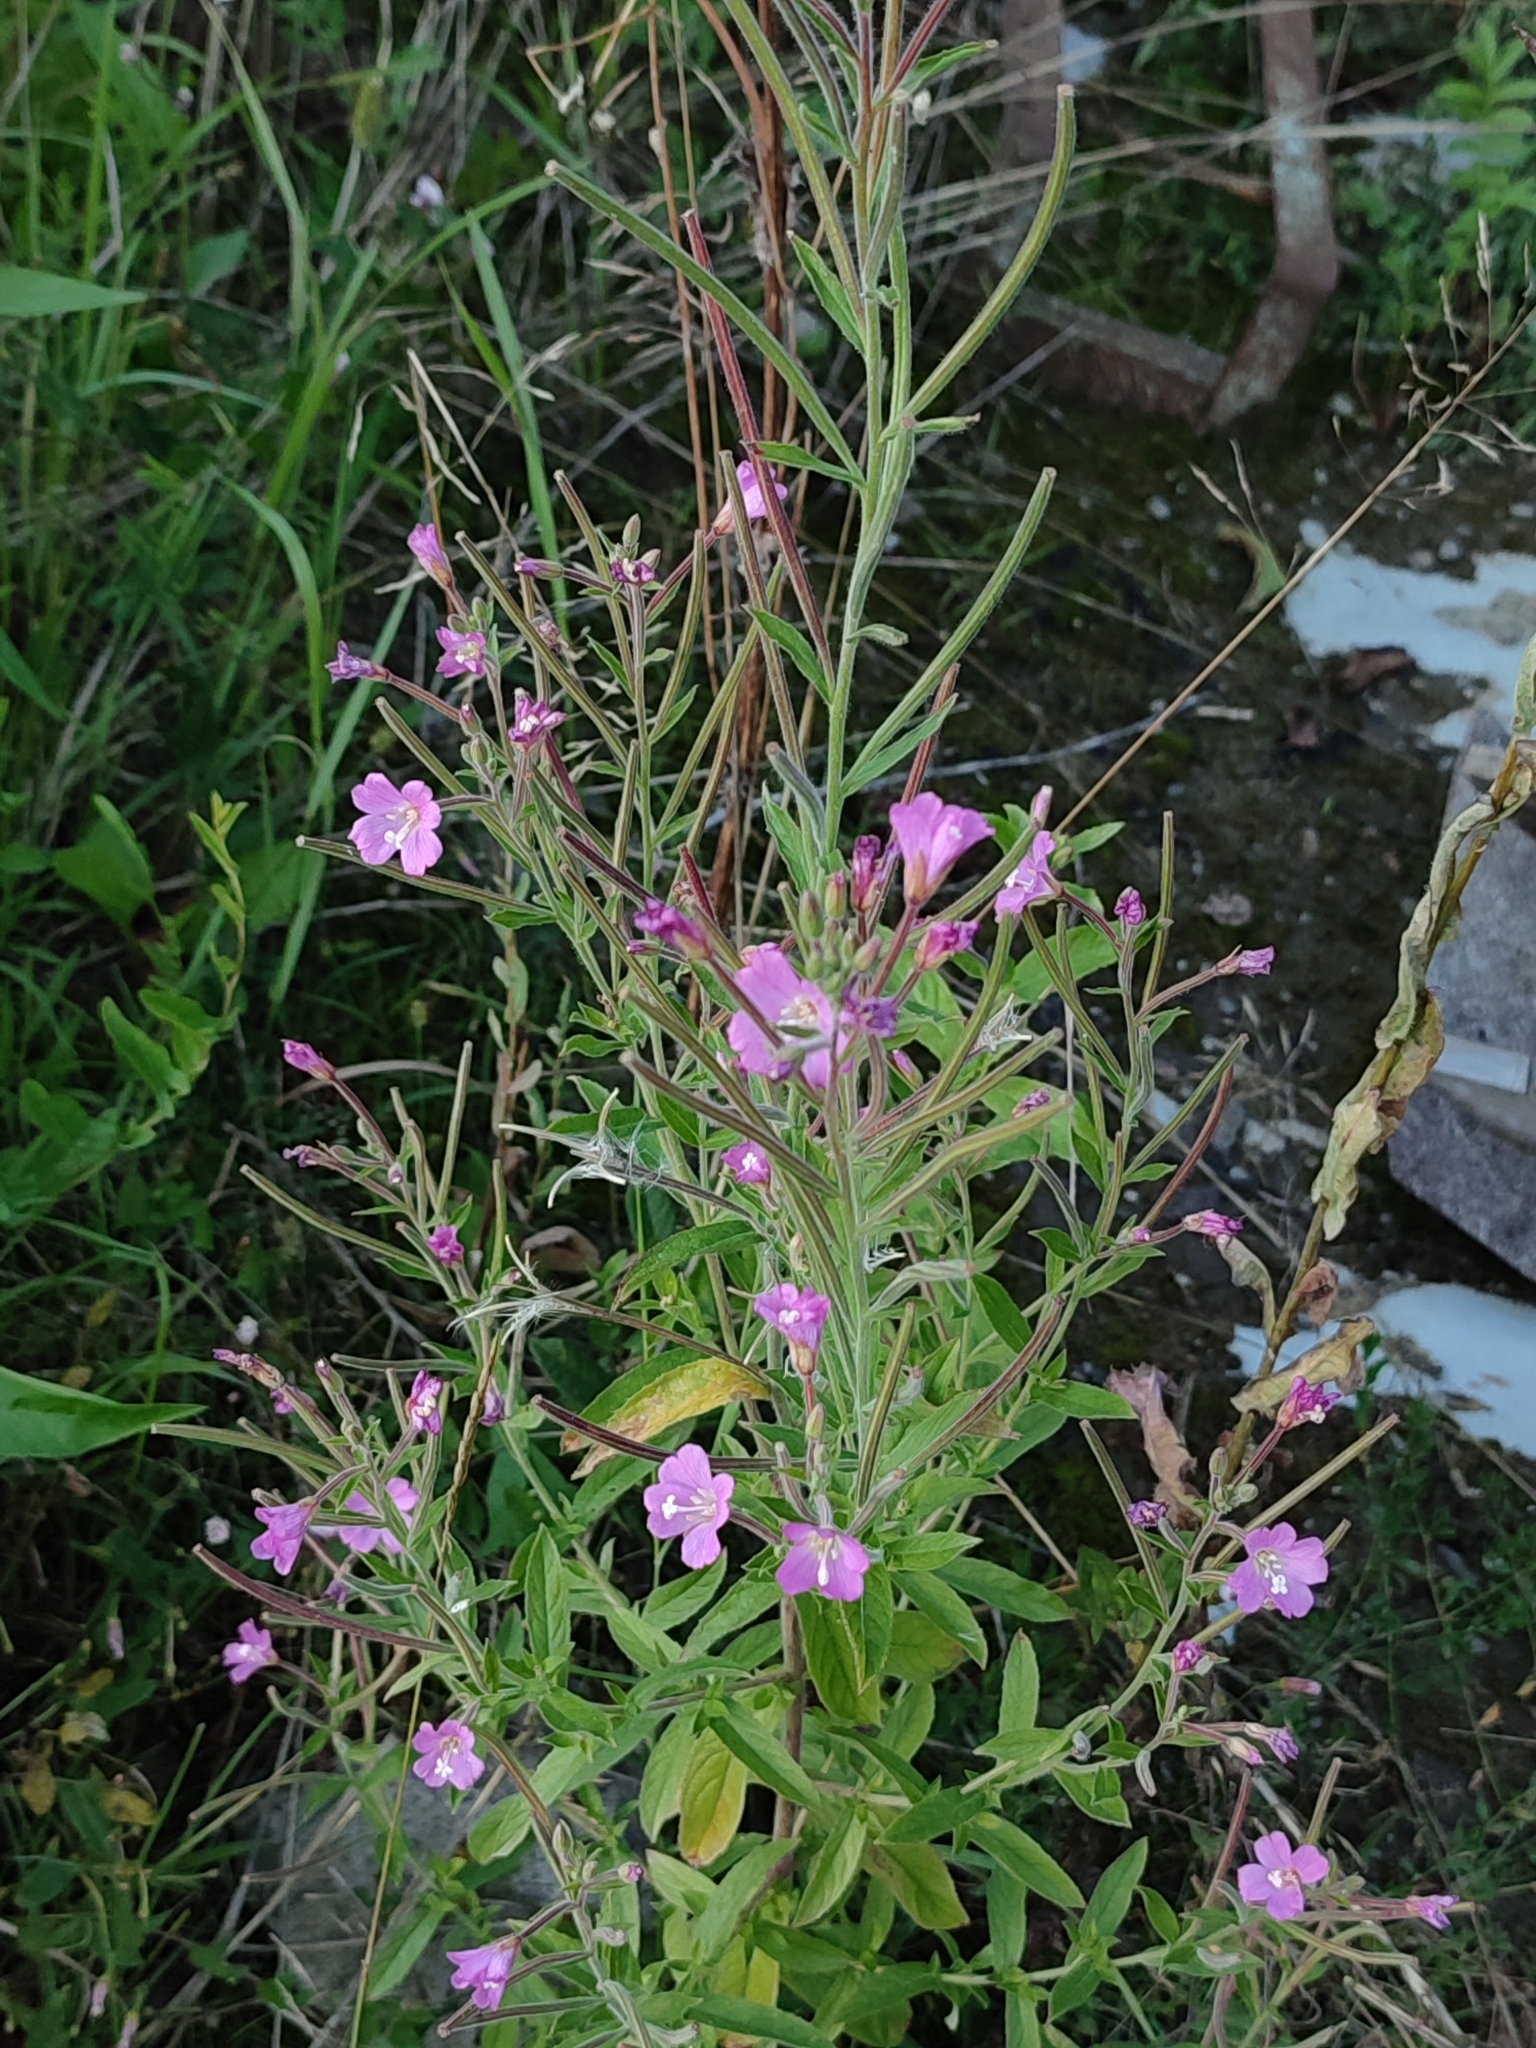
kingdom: Plantae
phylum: Tracheophyta
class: Magnoliopsida
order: Myrtales
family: Onagraceae
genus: Epilobium
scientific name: Epilobium hirsutum
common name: Great willowherb
